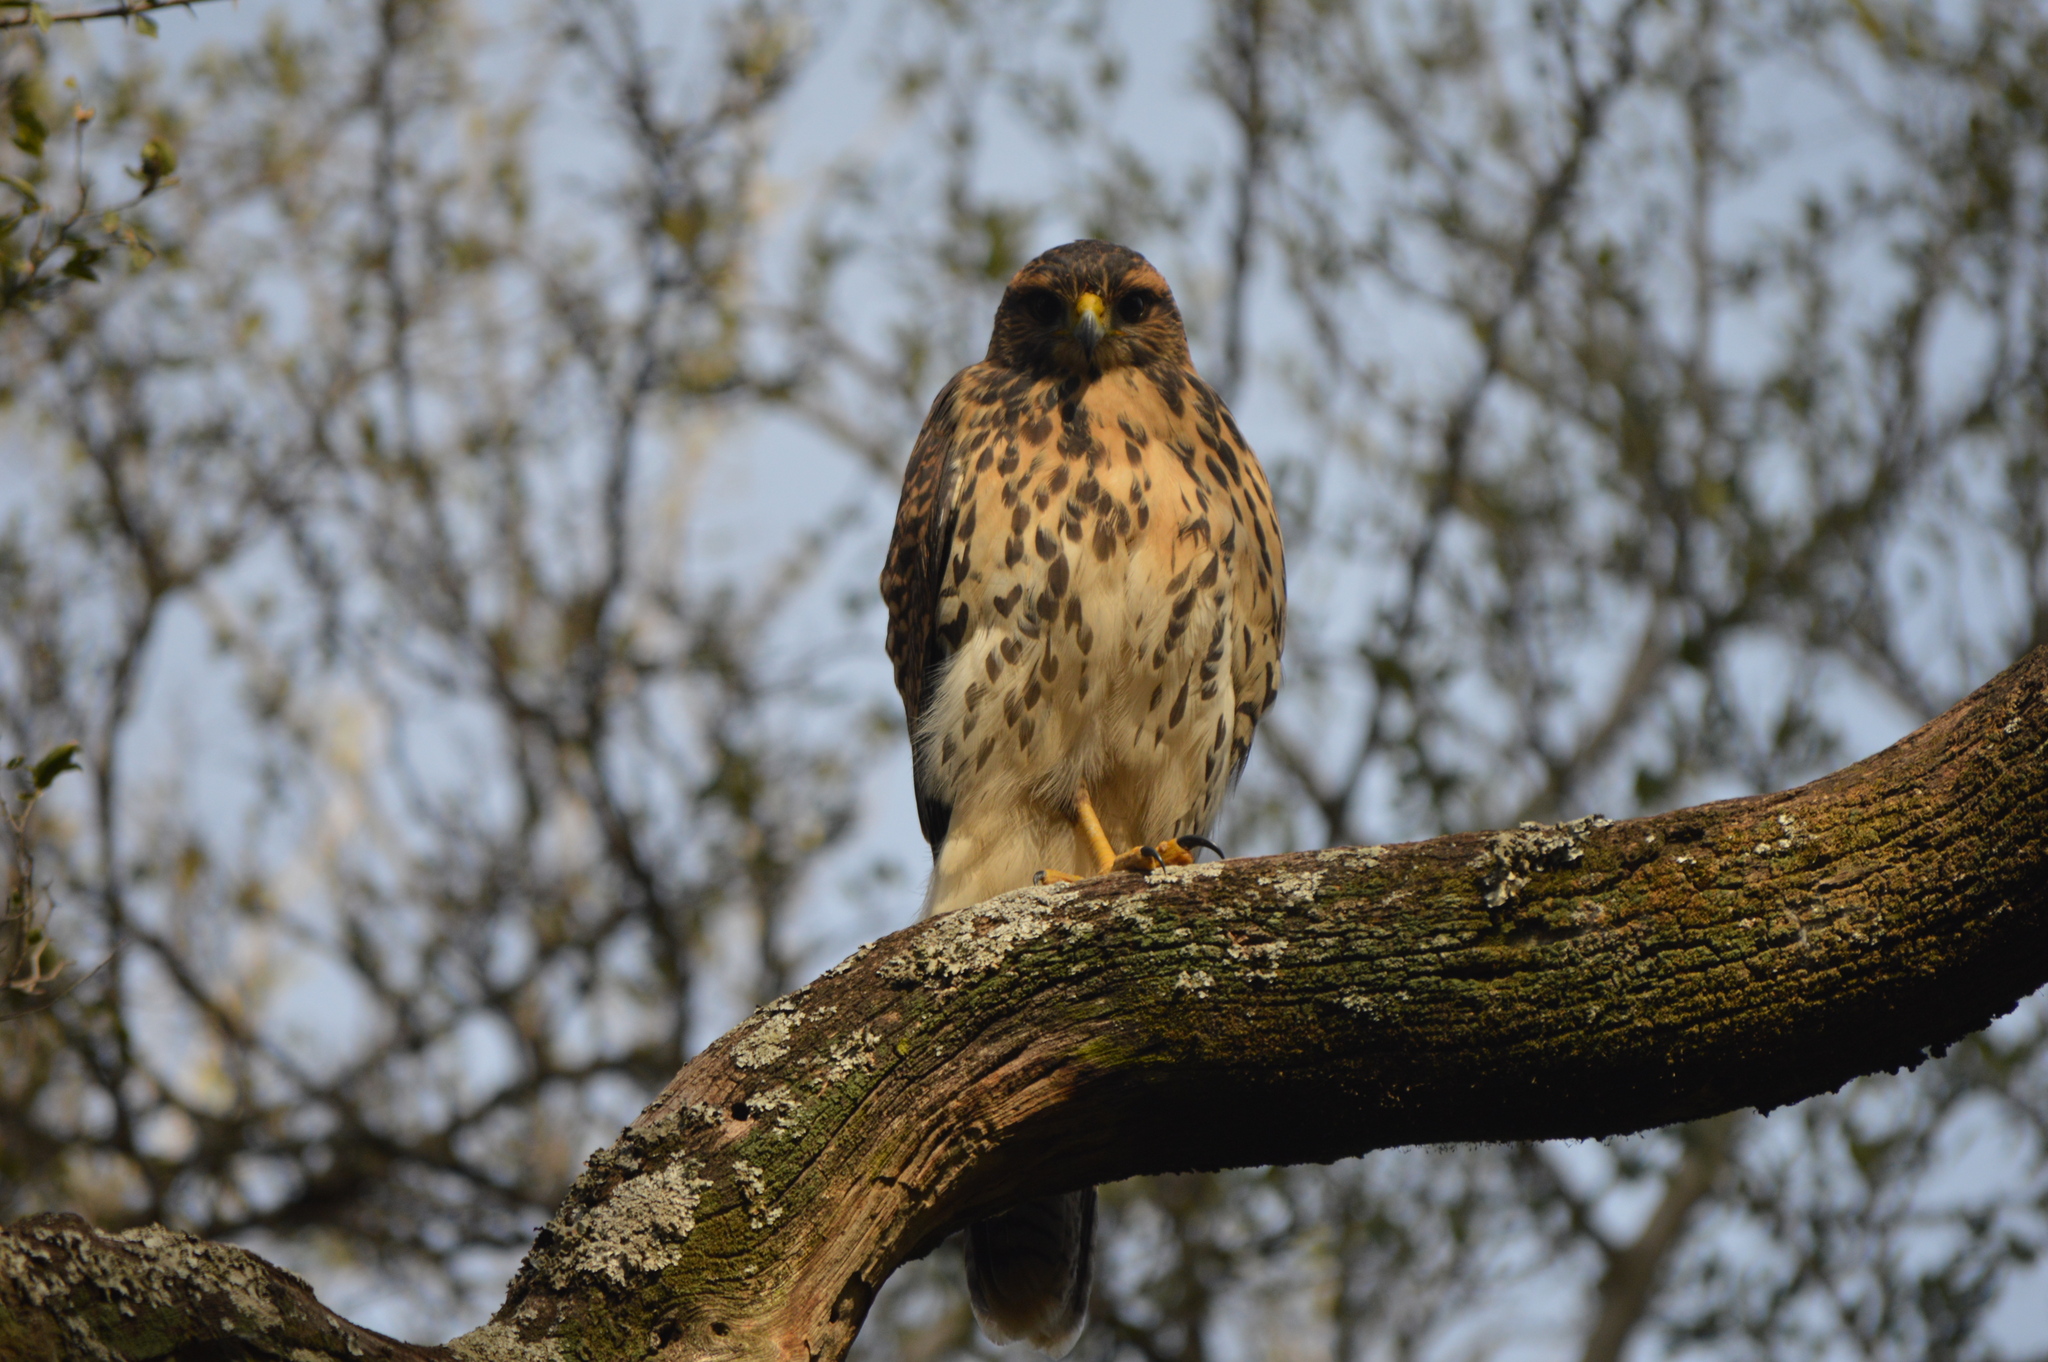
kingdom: Animalia
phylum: Chordata
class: Aves
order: Accipitriformes
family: Accipitridae
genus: Parabuteo
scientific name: Parabuteo unicinctus
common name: Harris's hawk
